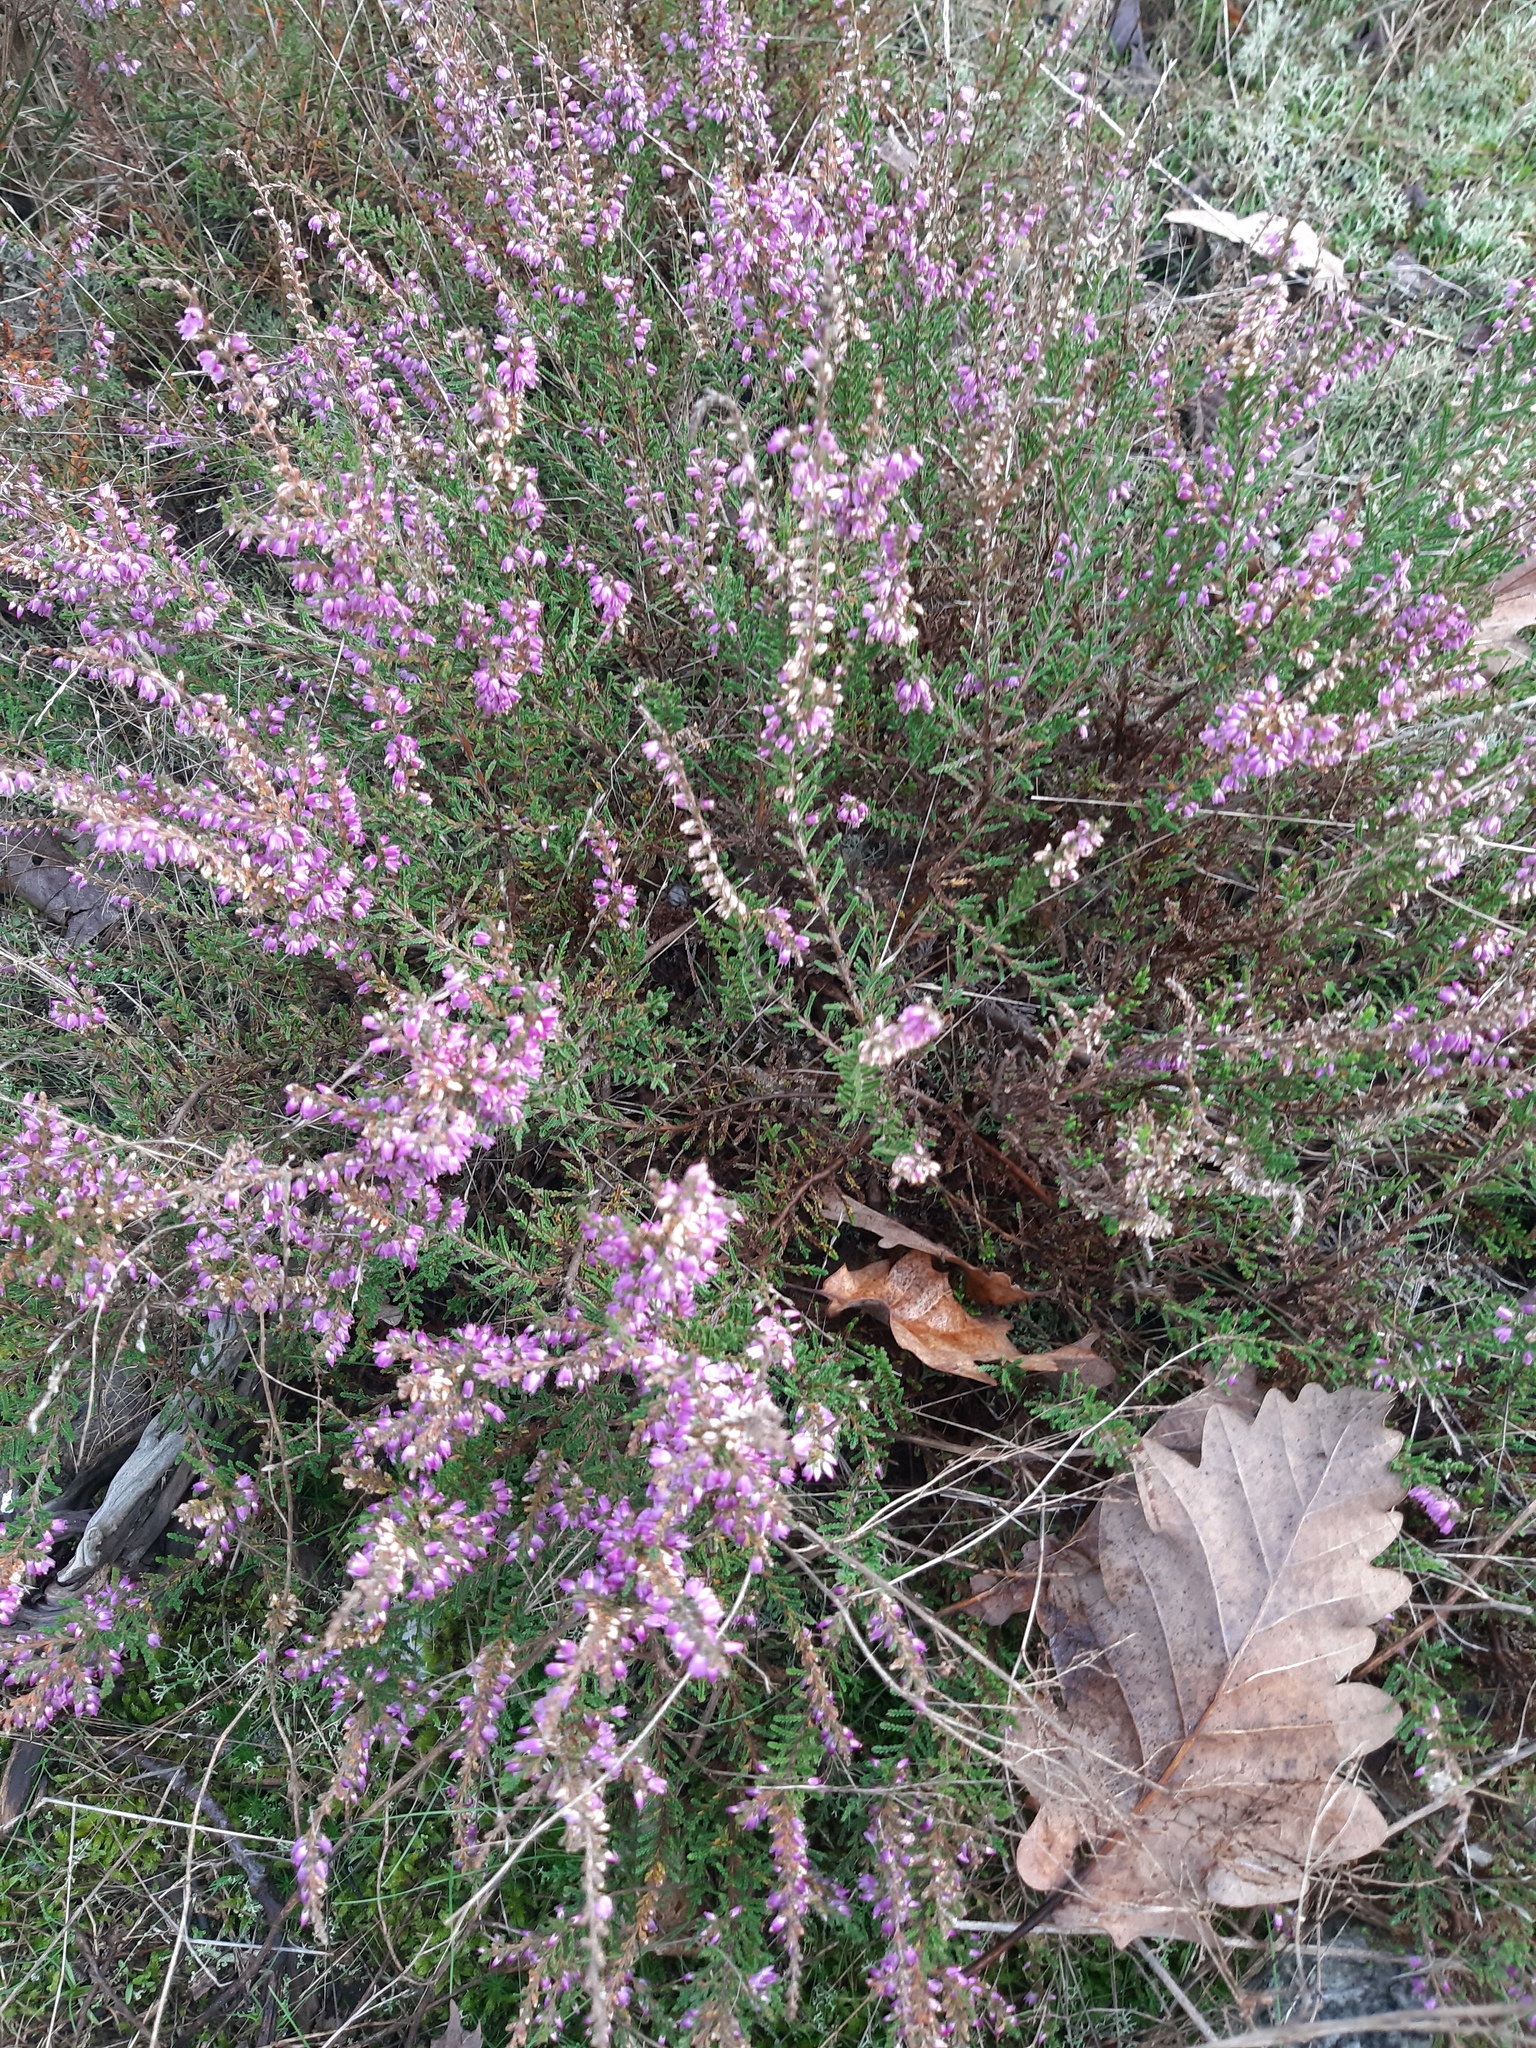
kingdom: Plantae
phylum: Tracheophyta
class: Magnoliopsida
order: Ericales
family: Ericaceae
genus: Calluna
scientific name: Calluna vulgaris
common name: Heather
